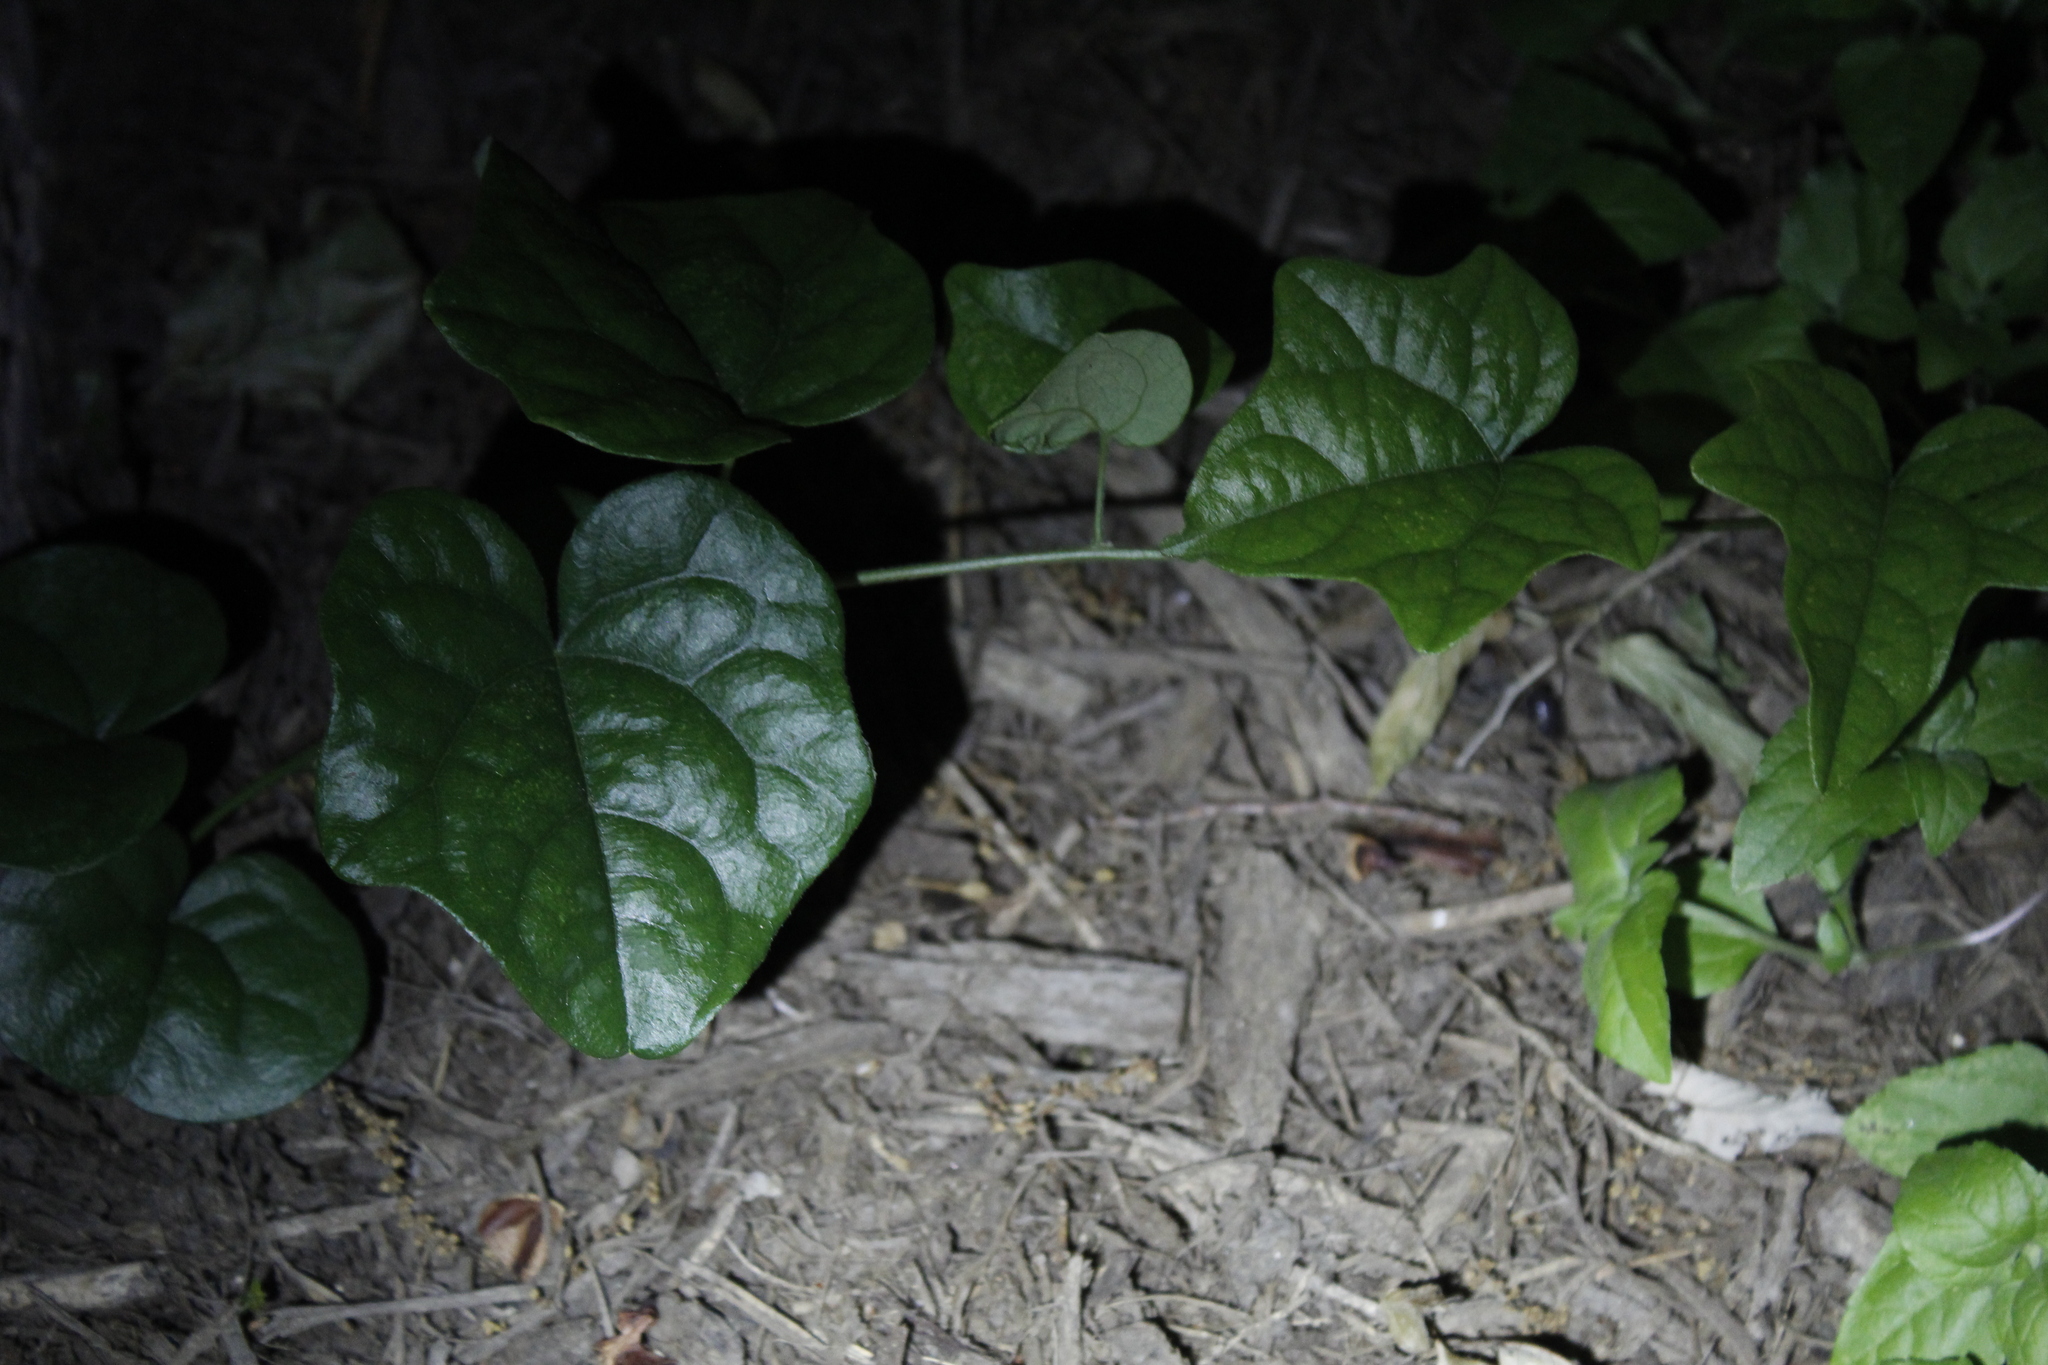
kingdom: Plantae
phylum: Tracheophyta
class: Magnoliopsida
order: Ranunculales
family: Menispermaceae
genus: Cocculus
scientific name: Cocculus carolinus
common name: Carolina moonseed
